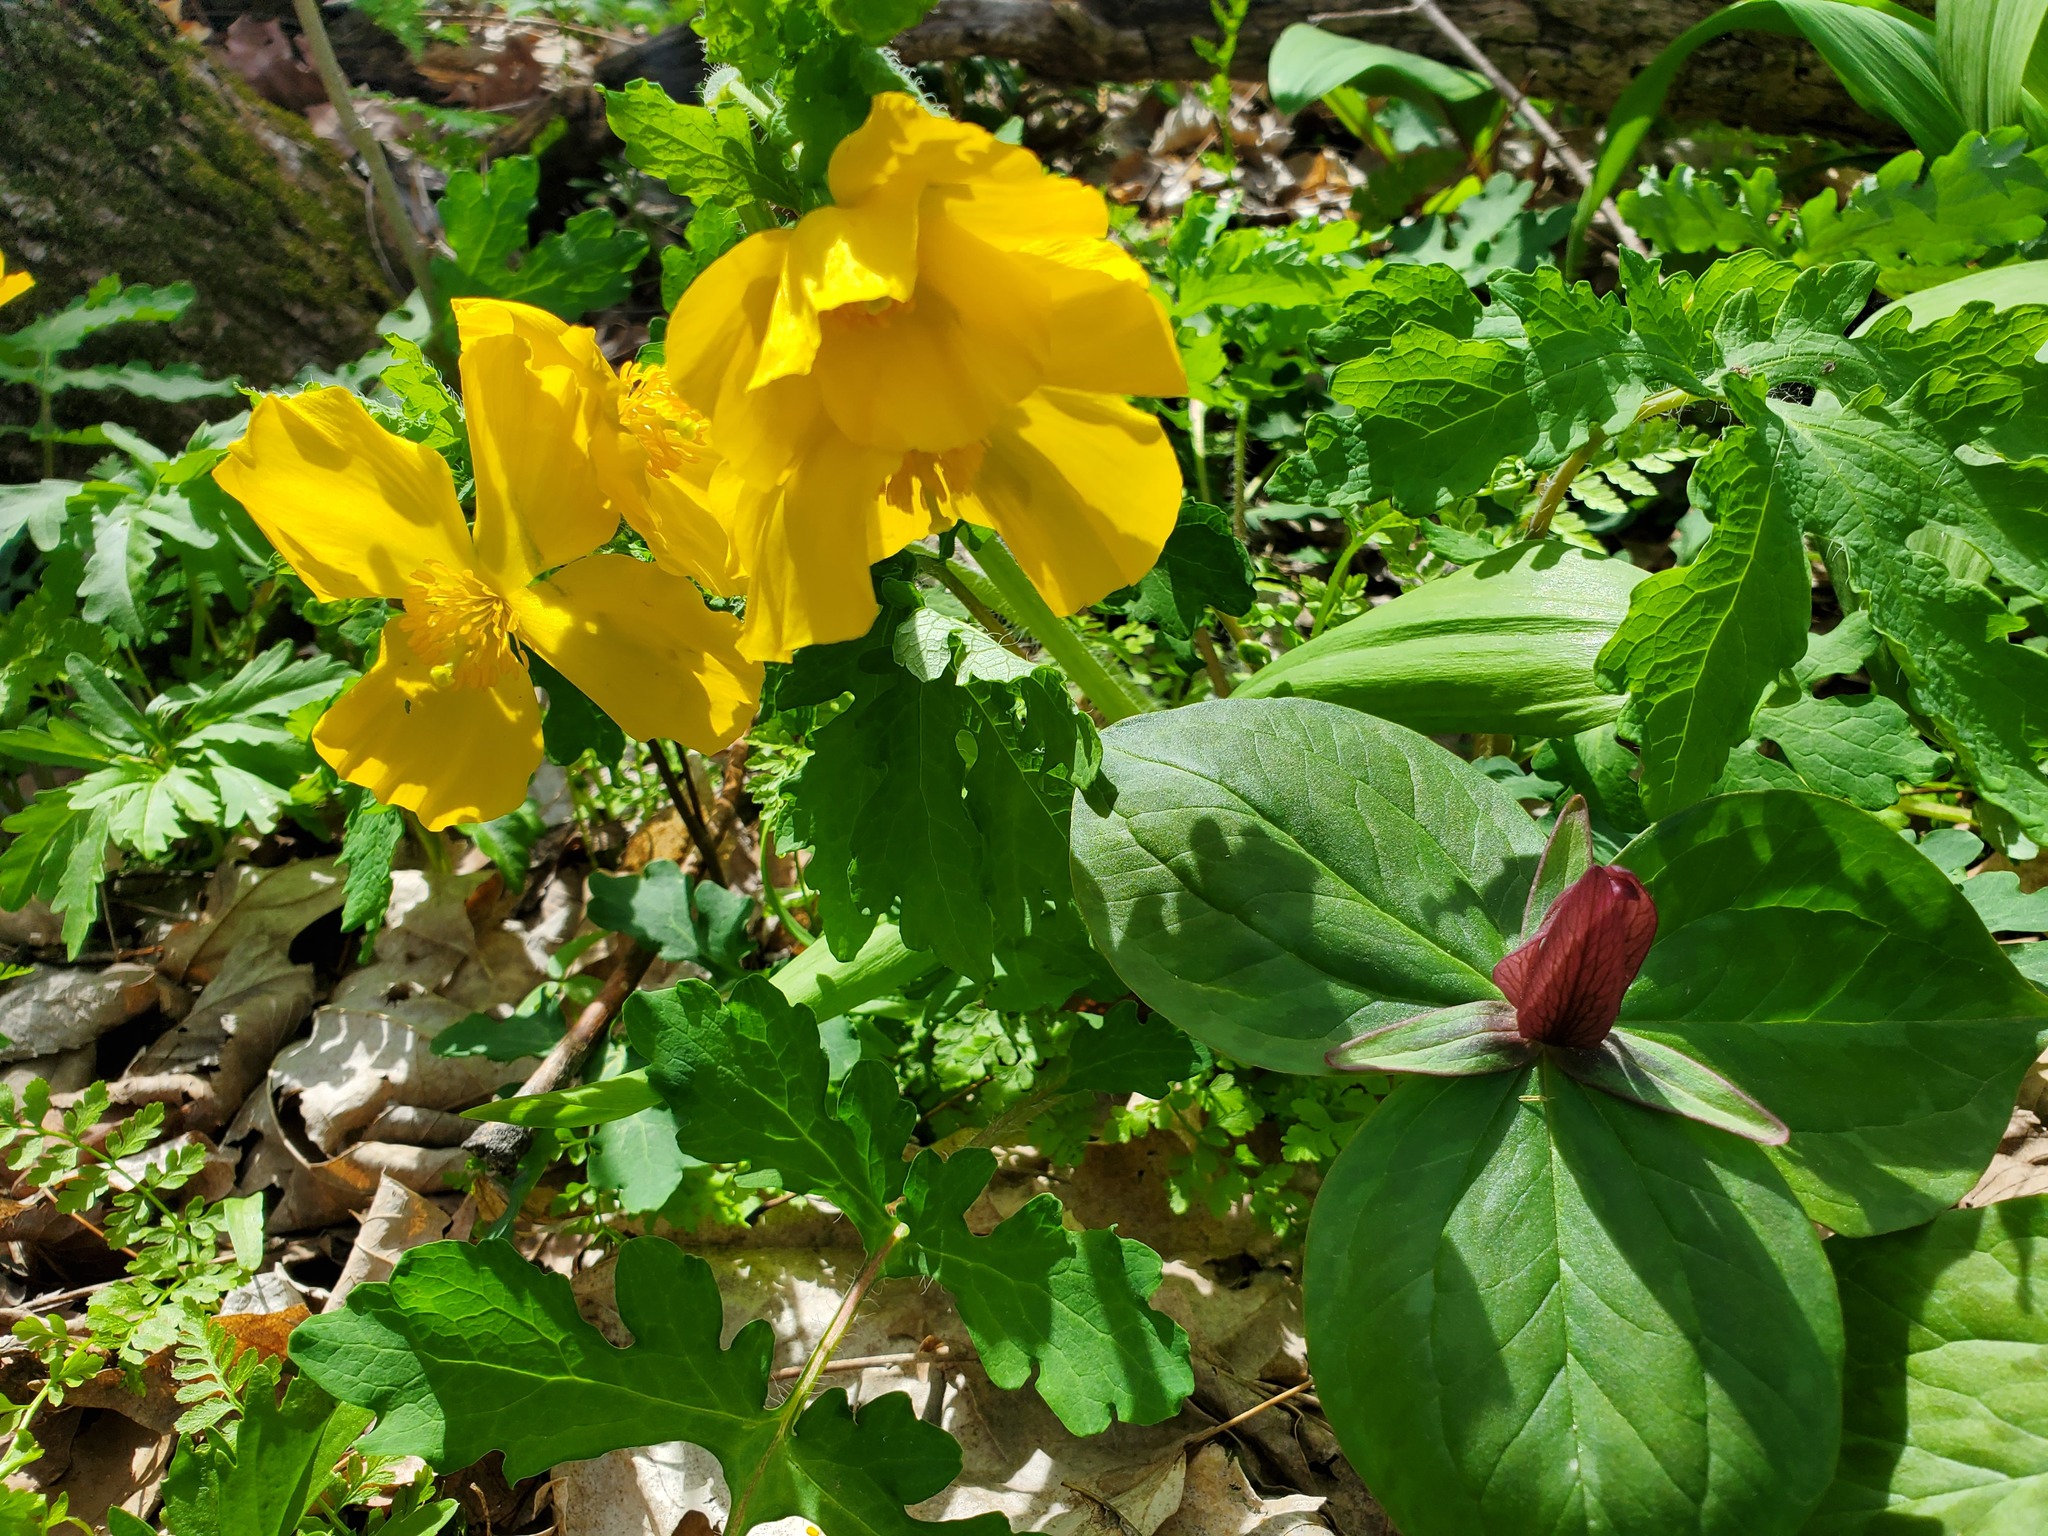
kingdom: Plantae
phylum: Tracheophyta
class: Liliopsida
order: Liliales
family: Melanthiaceae
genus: Trillium
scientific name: Trillium sessile
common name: Sessile trillium
